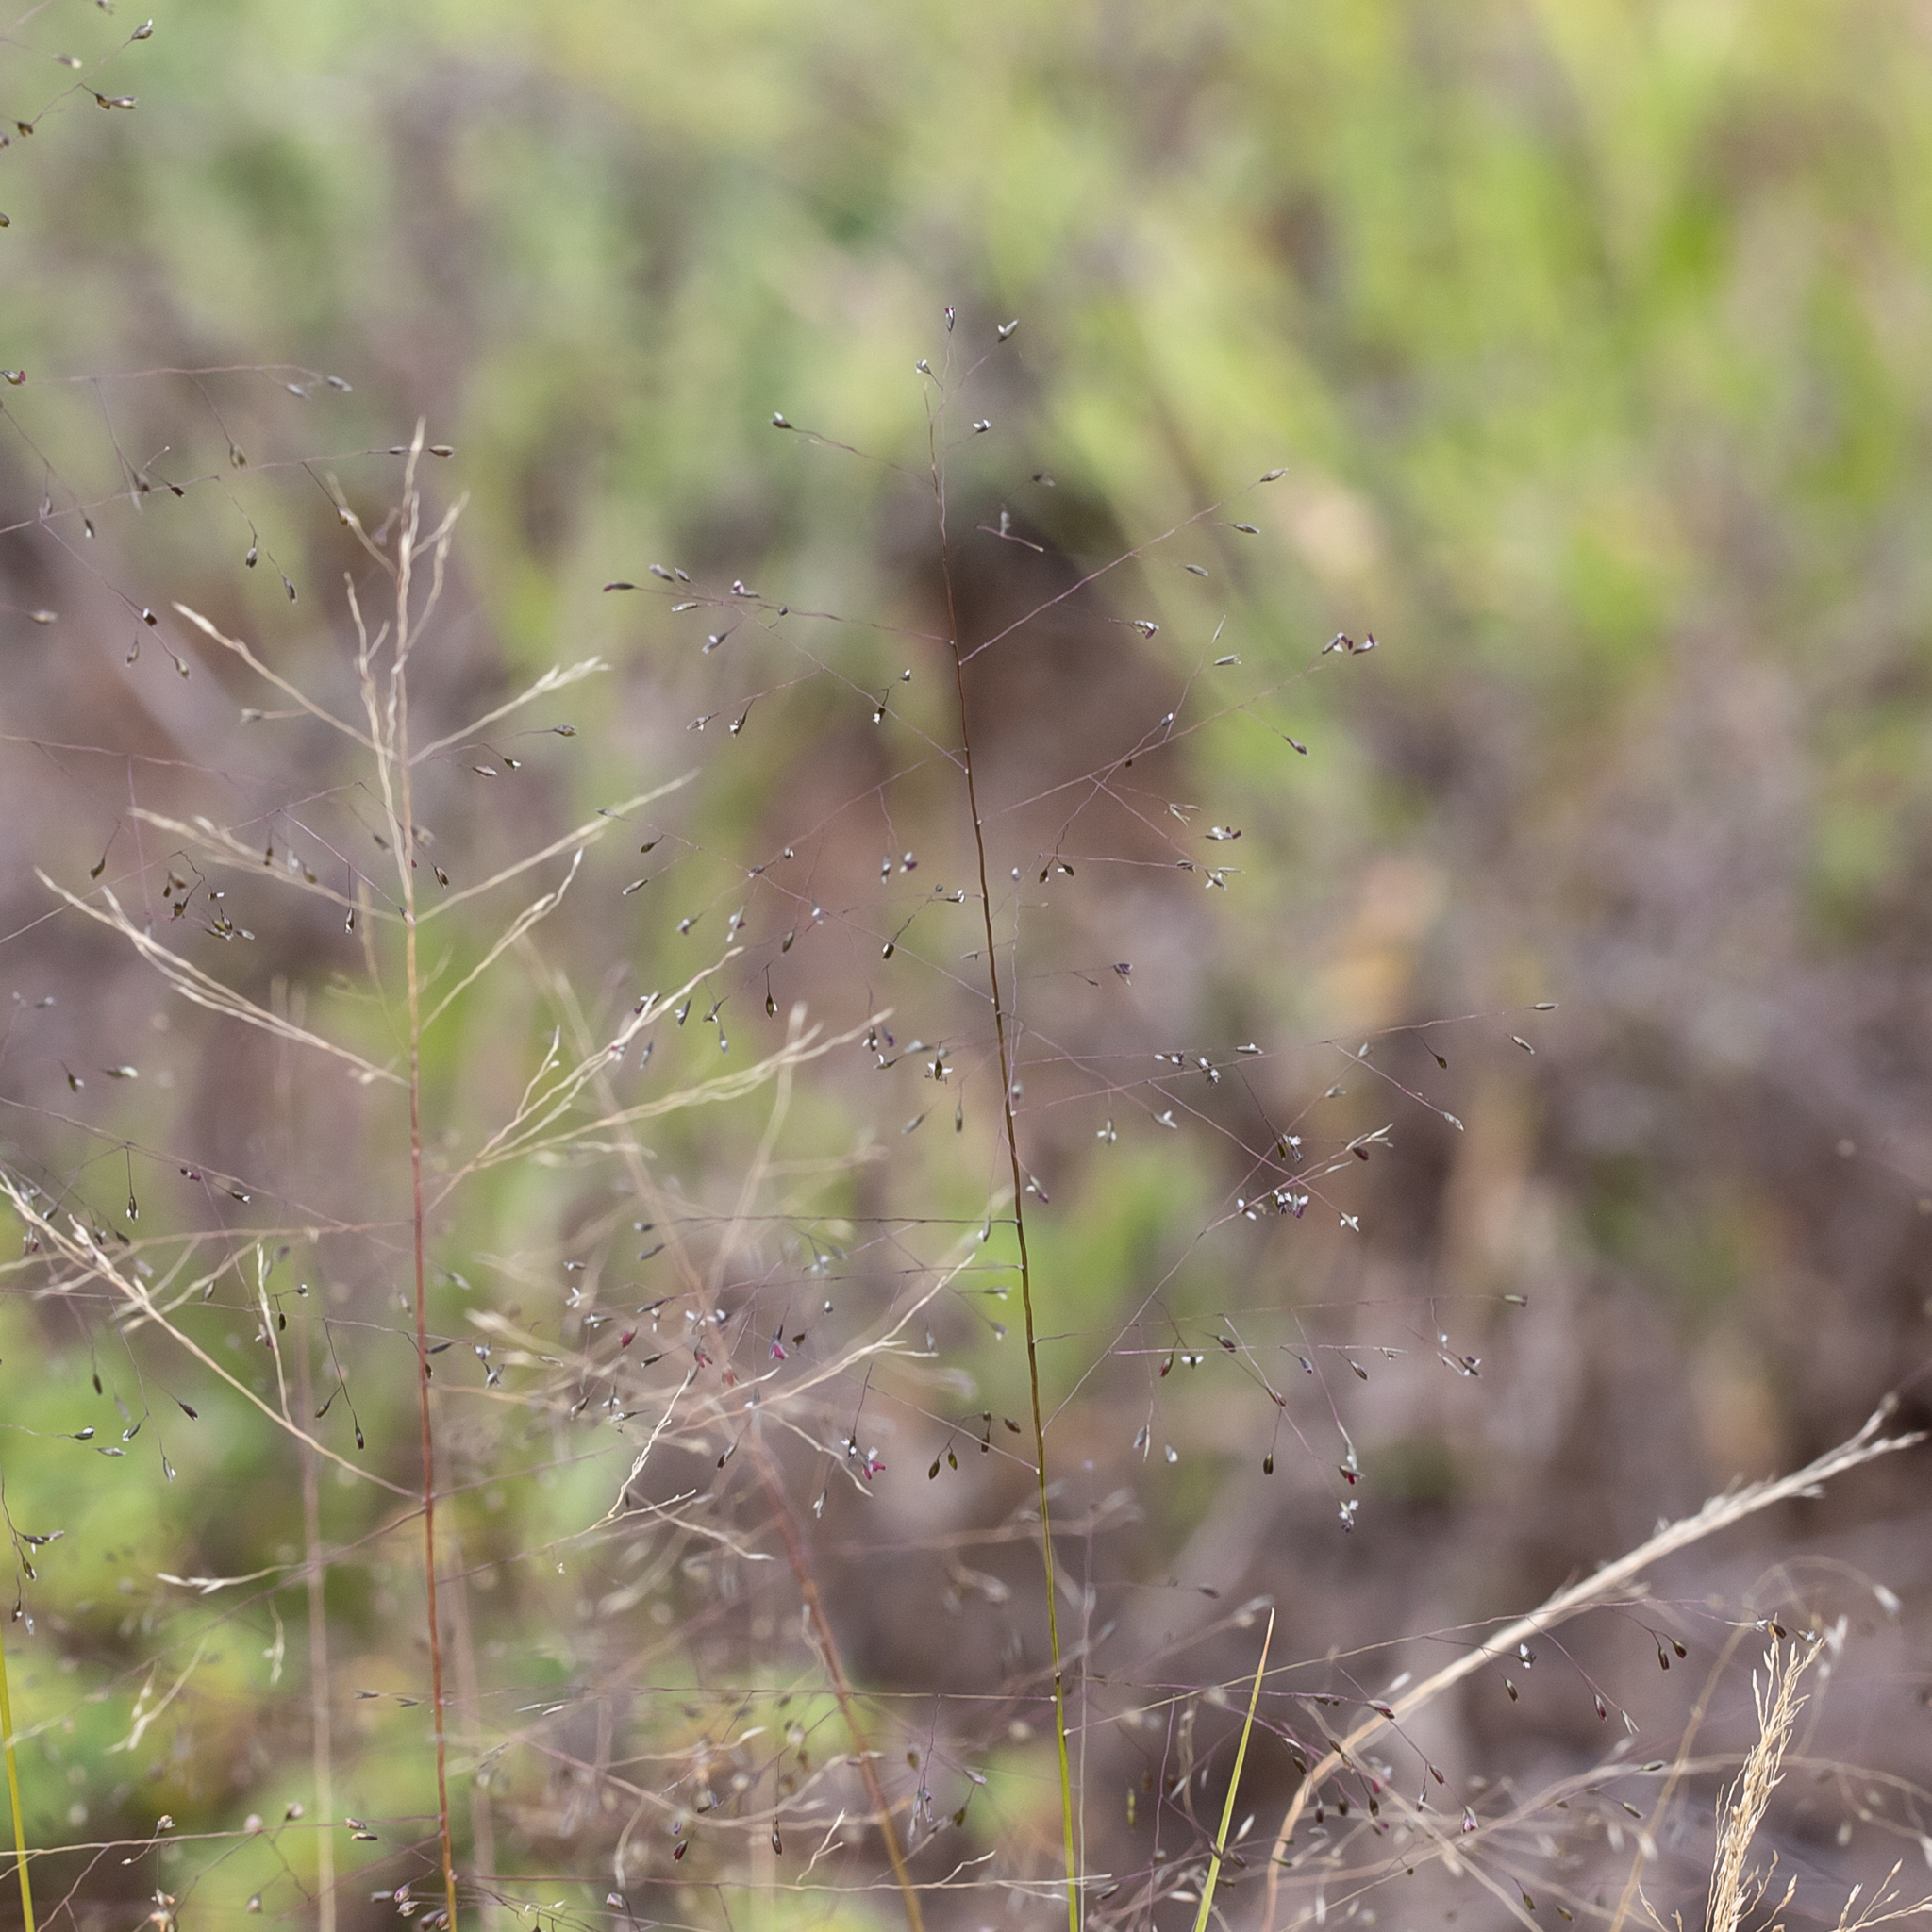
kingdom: Plantae
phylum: Tracheophyta
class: Liliopsida
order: Poales
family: Poaceae
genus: Sporobolus
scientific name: Sporobolus caroli
